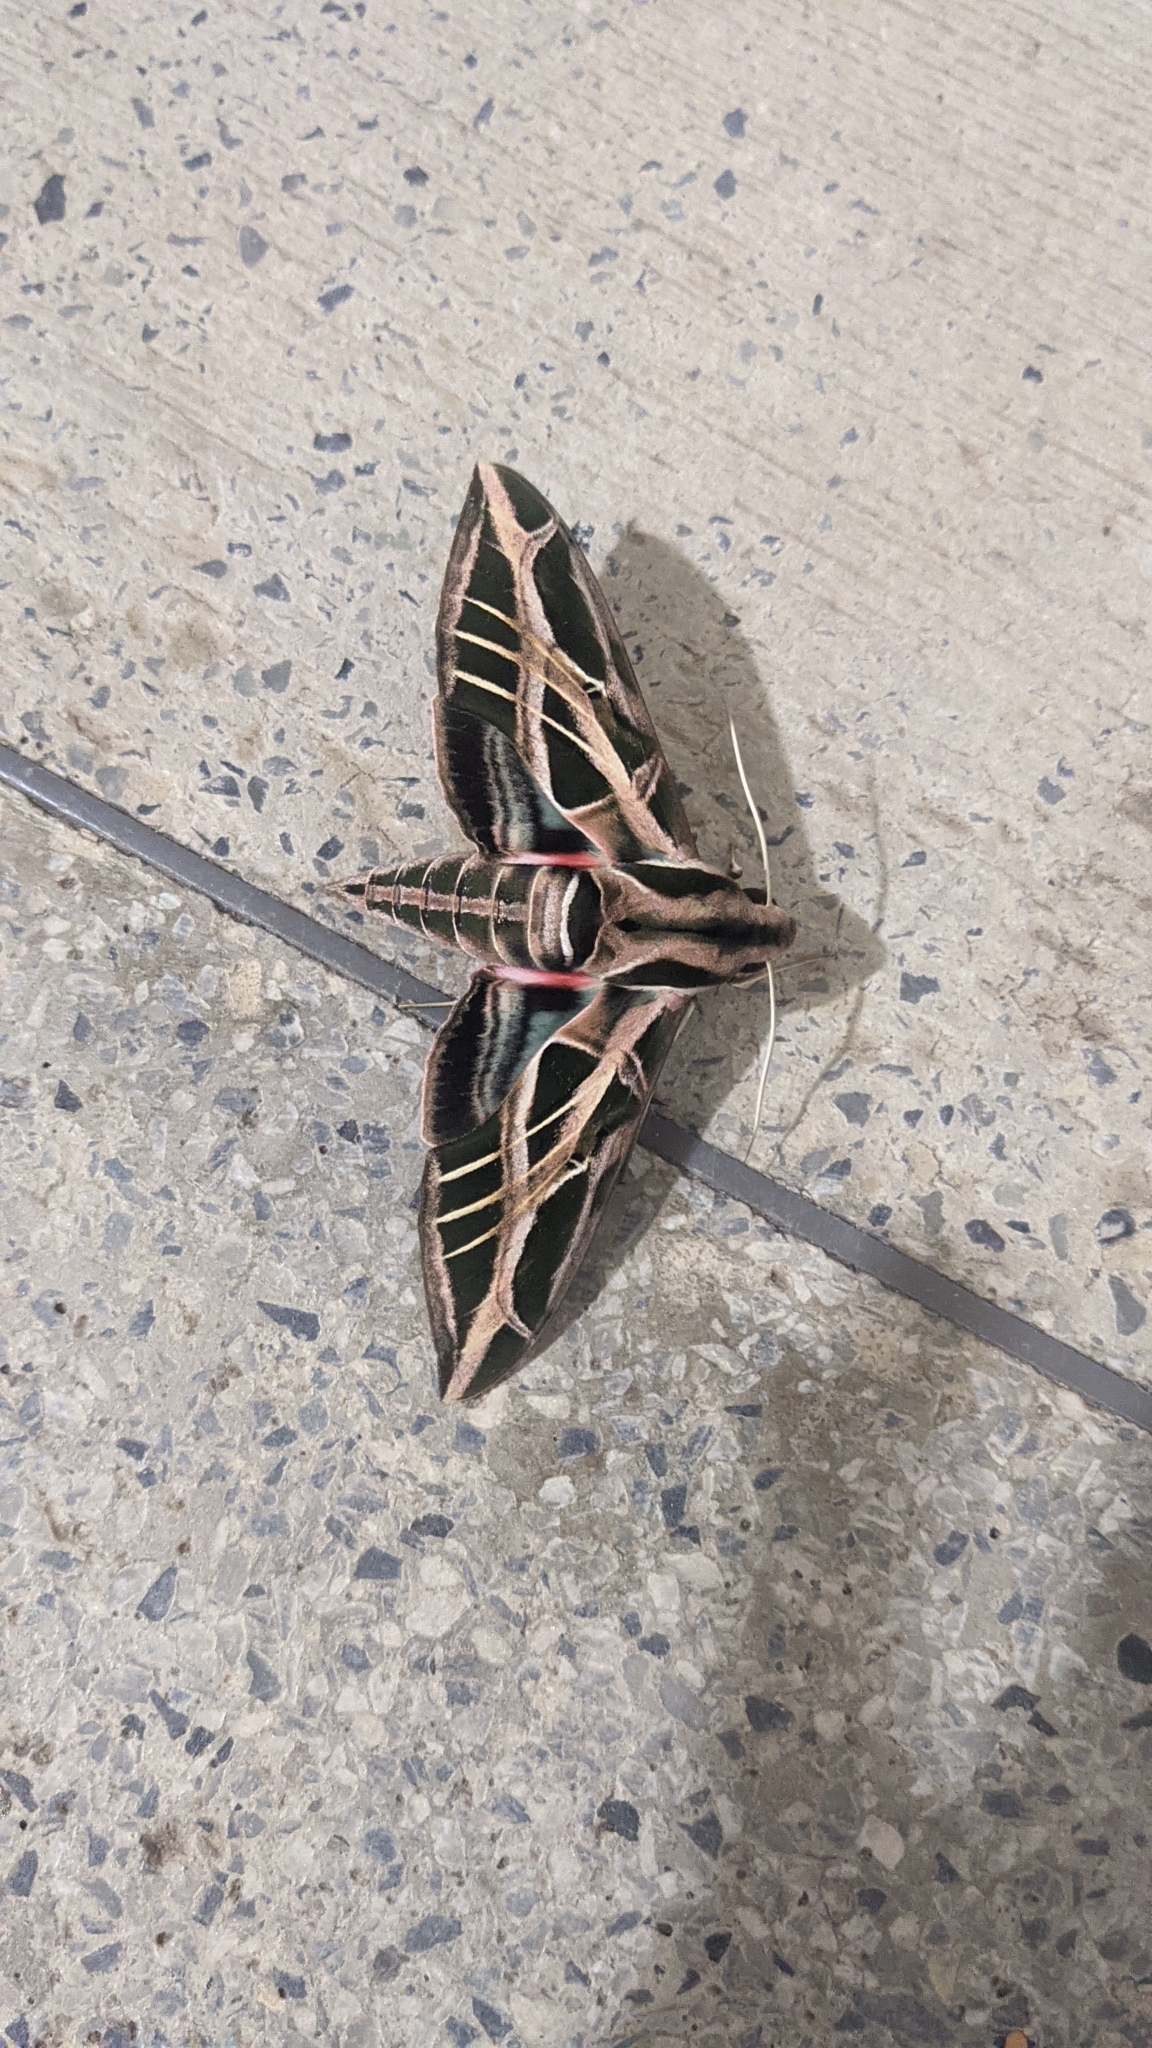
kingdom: Animalia
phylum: Arthropoda
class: Insecta
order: Lepidoptera
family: Sphingidae
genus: Eumorpha
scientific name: Eumorpha vitis
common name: Vine sphinx
